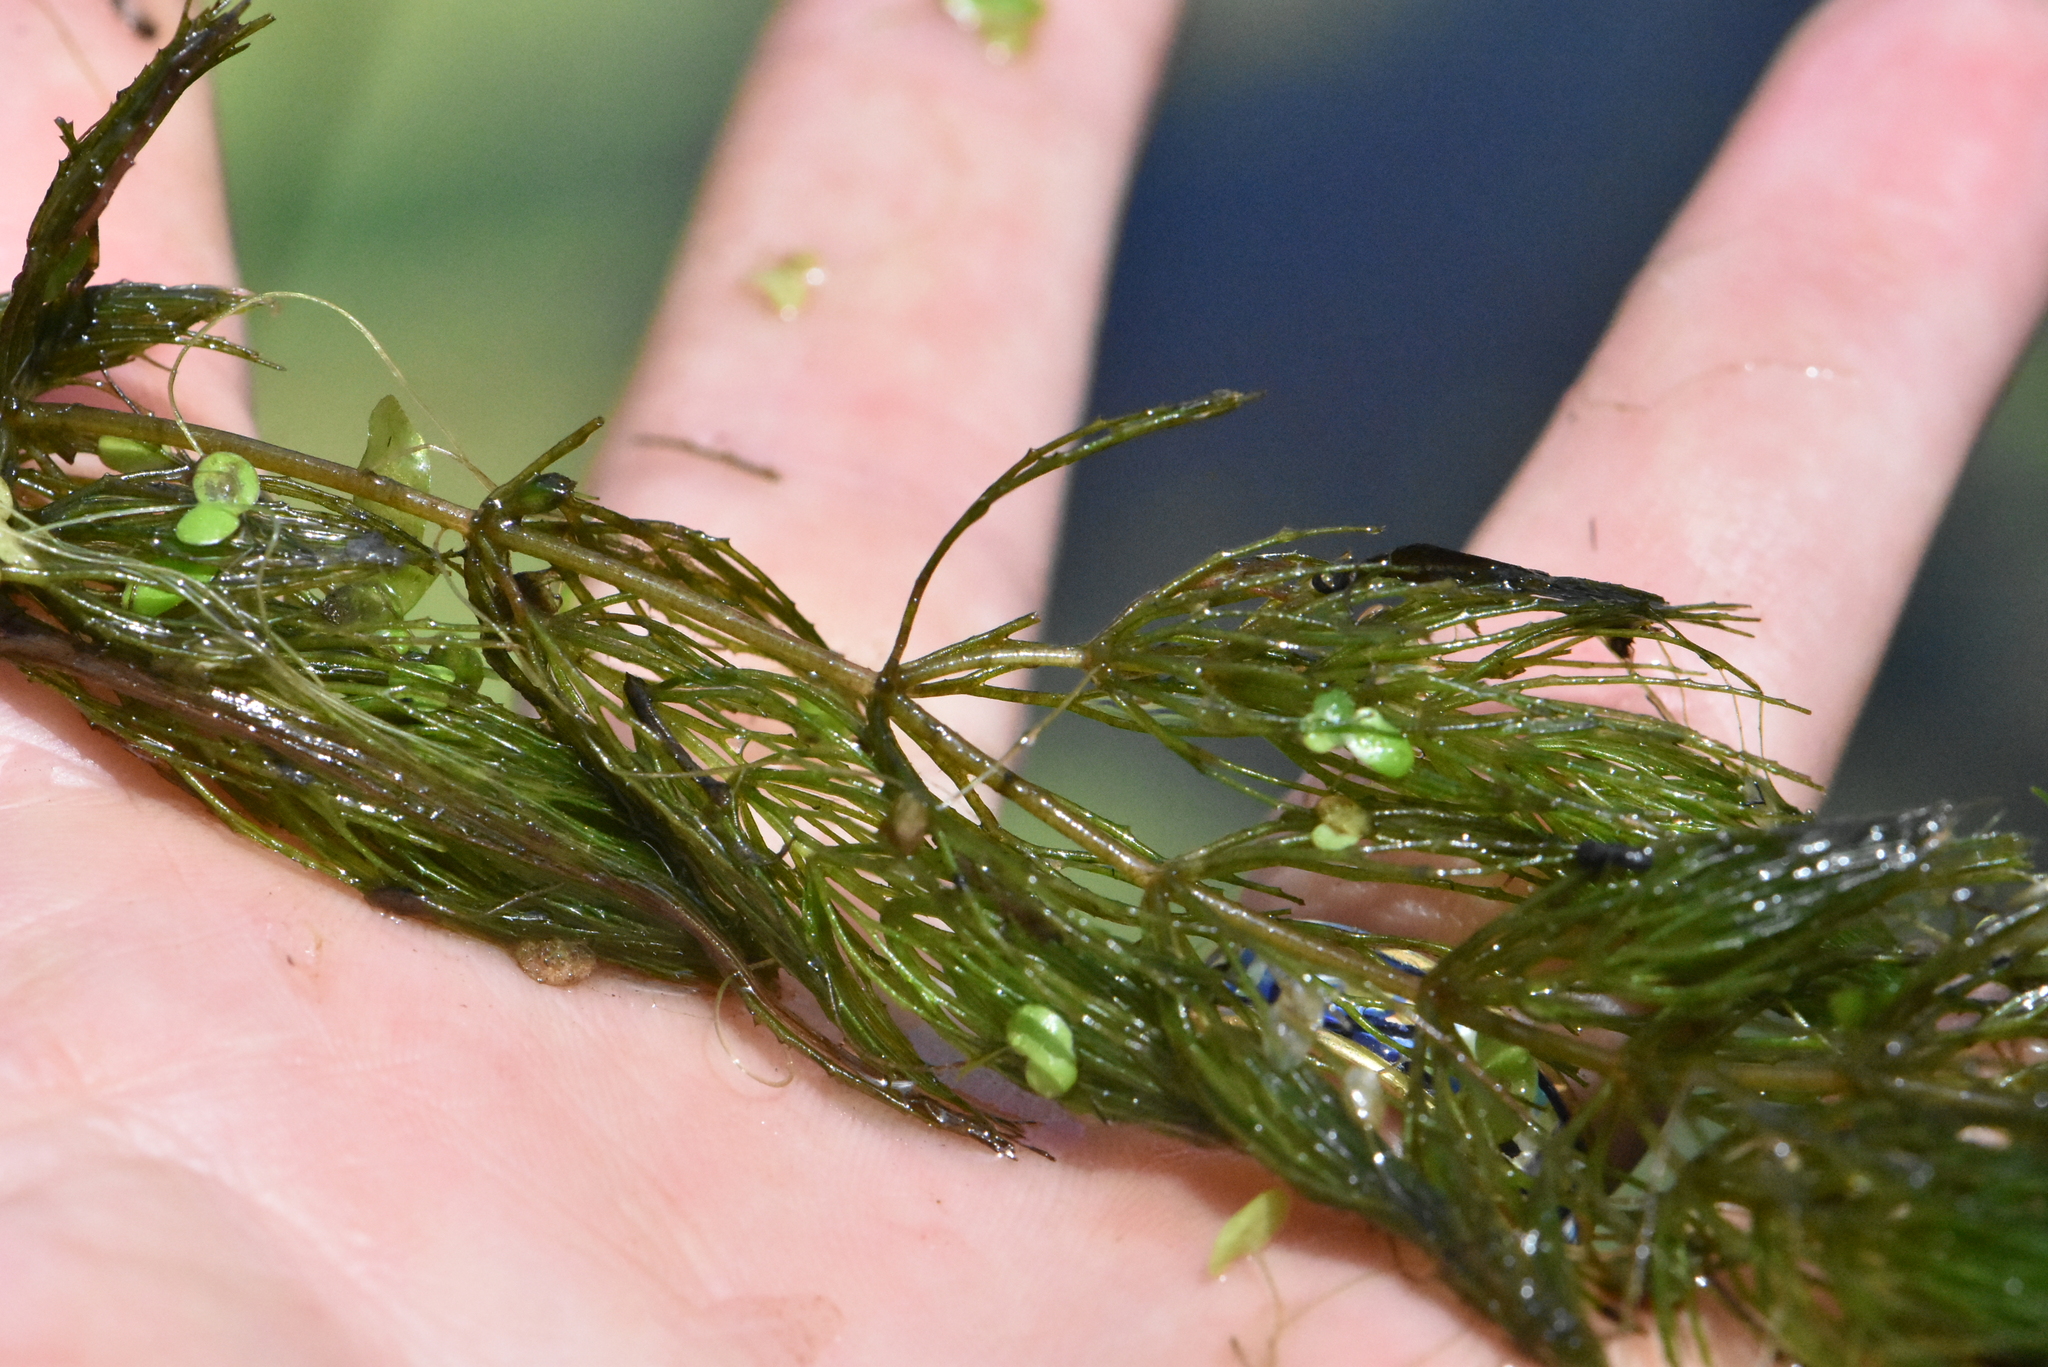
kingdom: Plantae
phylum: Tracheophyta
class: Magnoliopsida
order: Ceratophyllales
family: Ceratophyllaceae
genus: Ceratophyllum
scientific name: Ceratophyllum demersum
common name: Rigid hornwort
